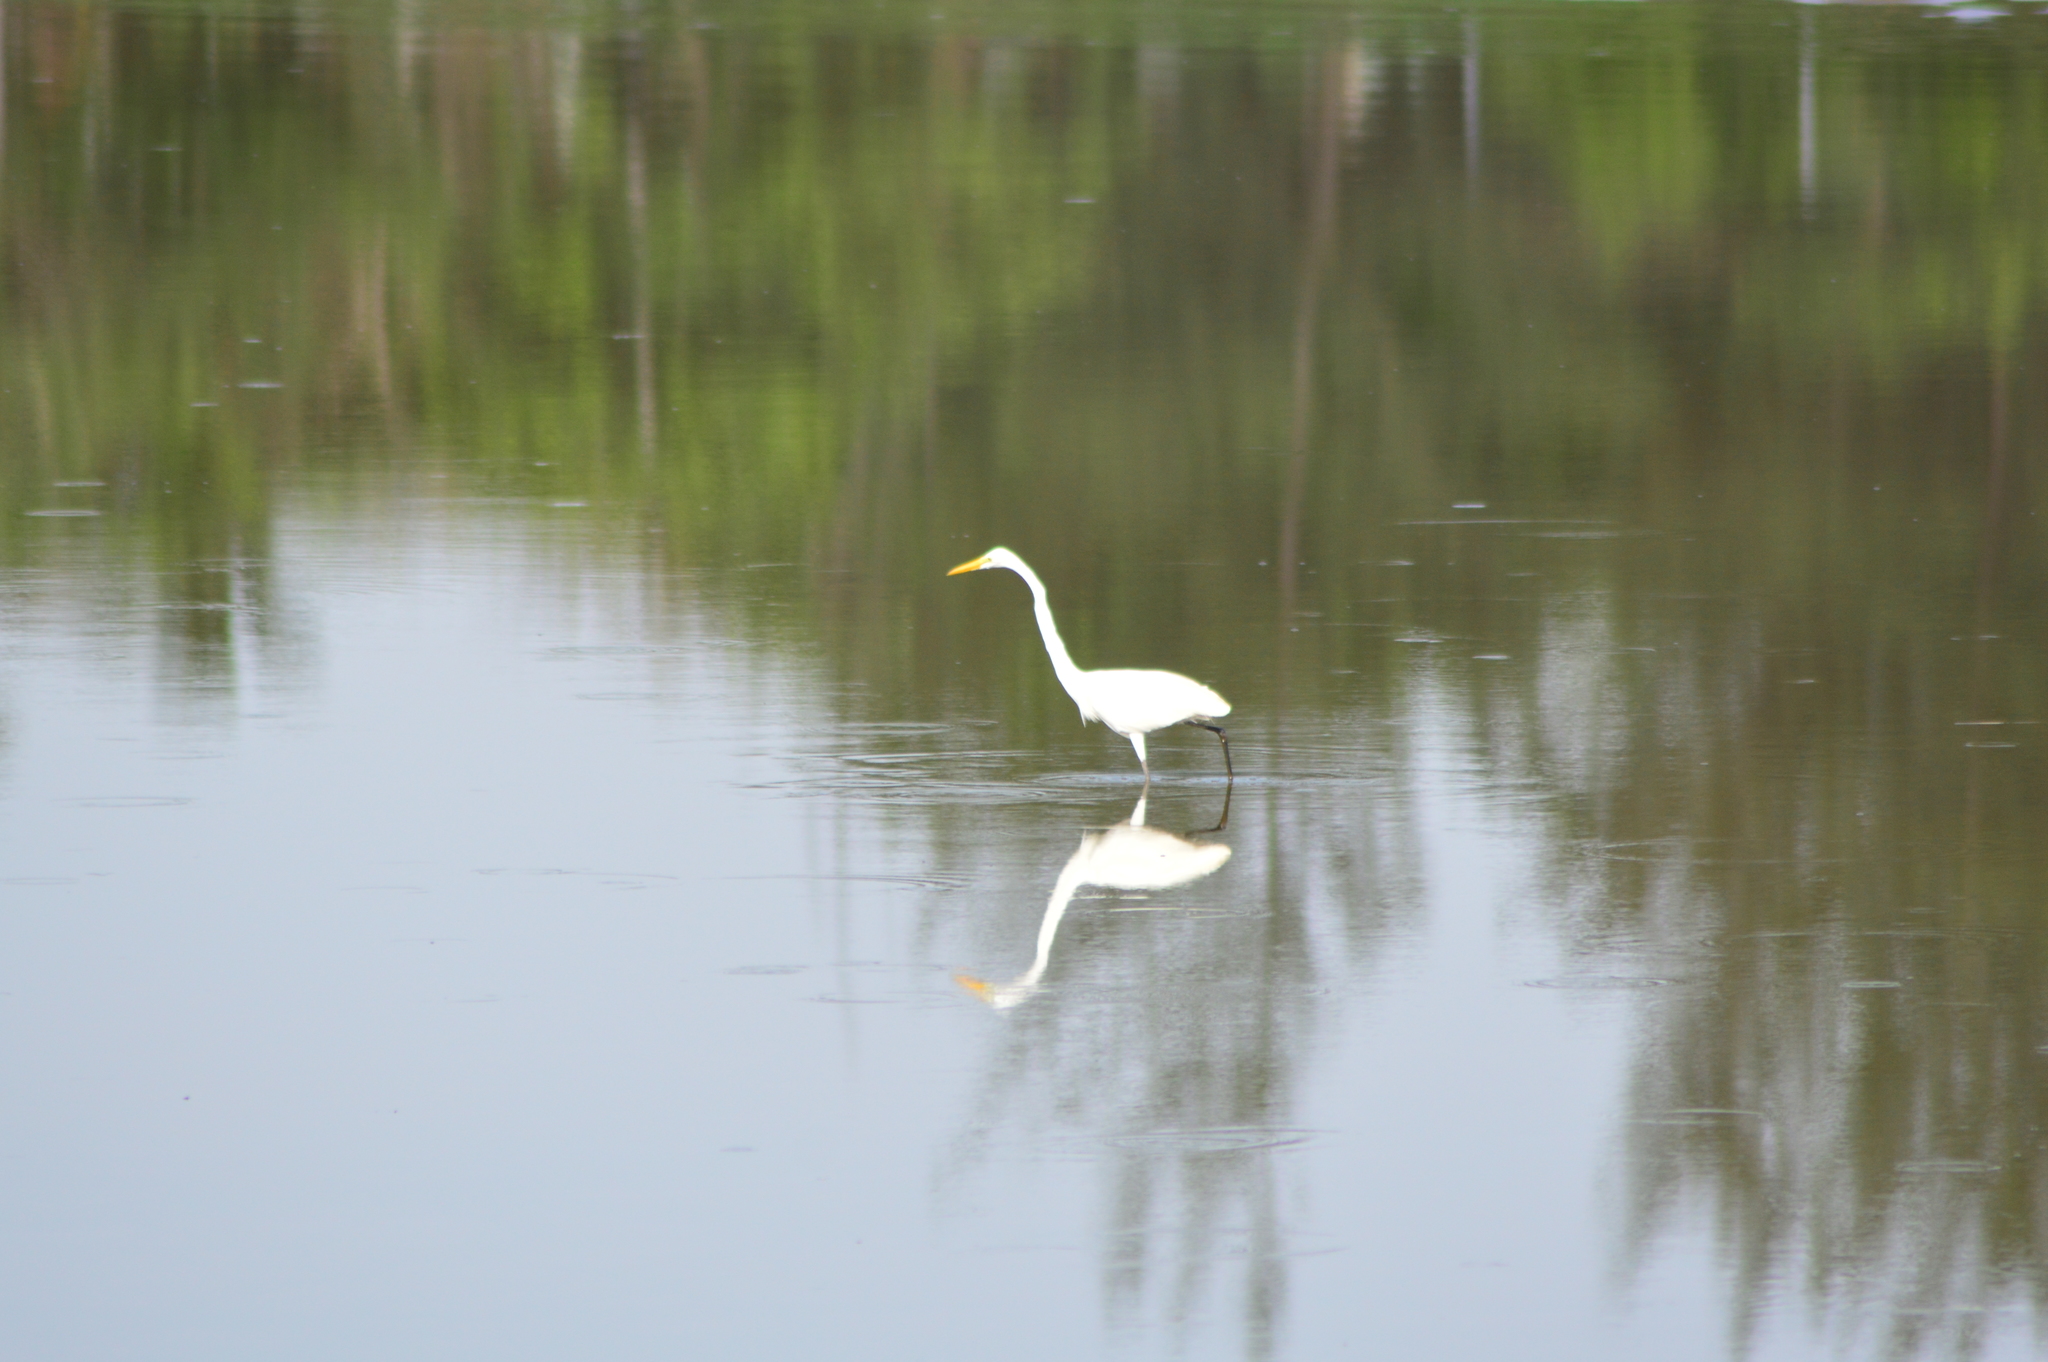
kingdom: Animalia
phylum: Chordata
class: Aves
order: Pelecaniformes
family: Ardeidae
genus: Ardea
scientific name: Ardea alba
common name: Great egret
